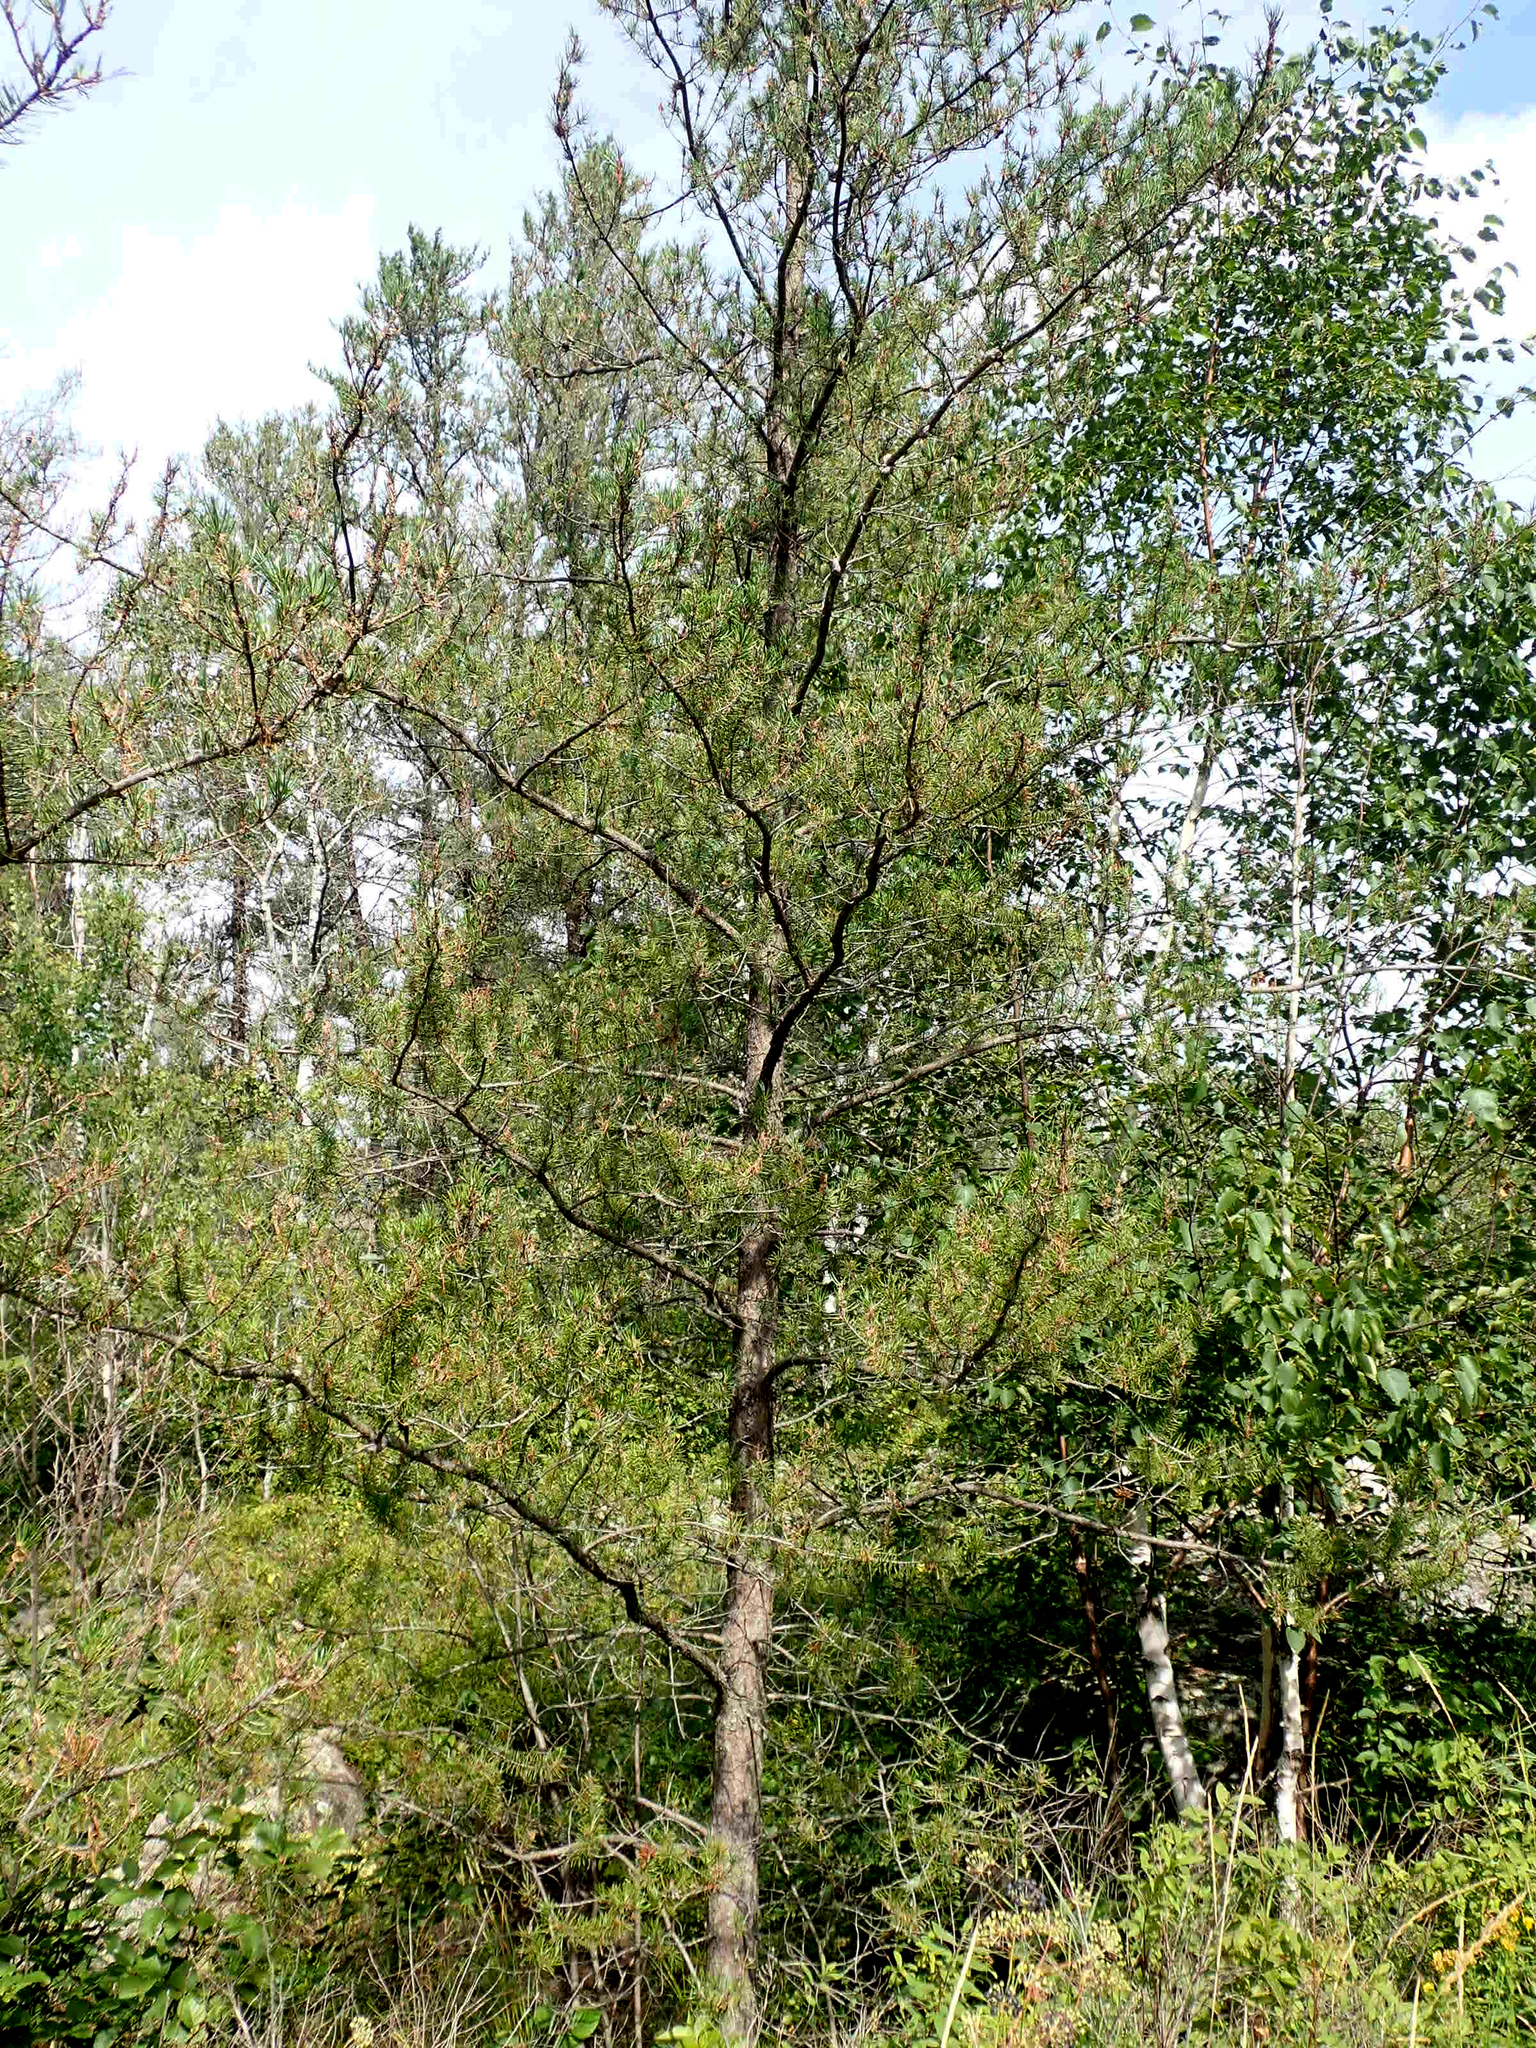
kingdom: Plantae
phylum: Tracheophyta
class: Pinopsida
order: Pinales
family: Pinaceae
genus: Pinus
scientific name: Pinus banksiana
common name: Jack pine
